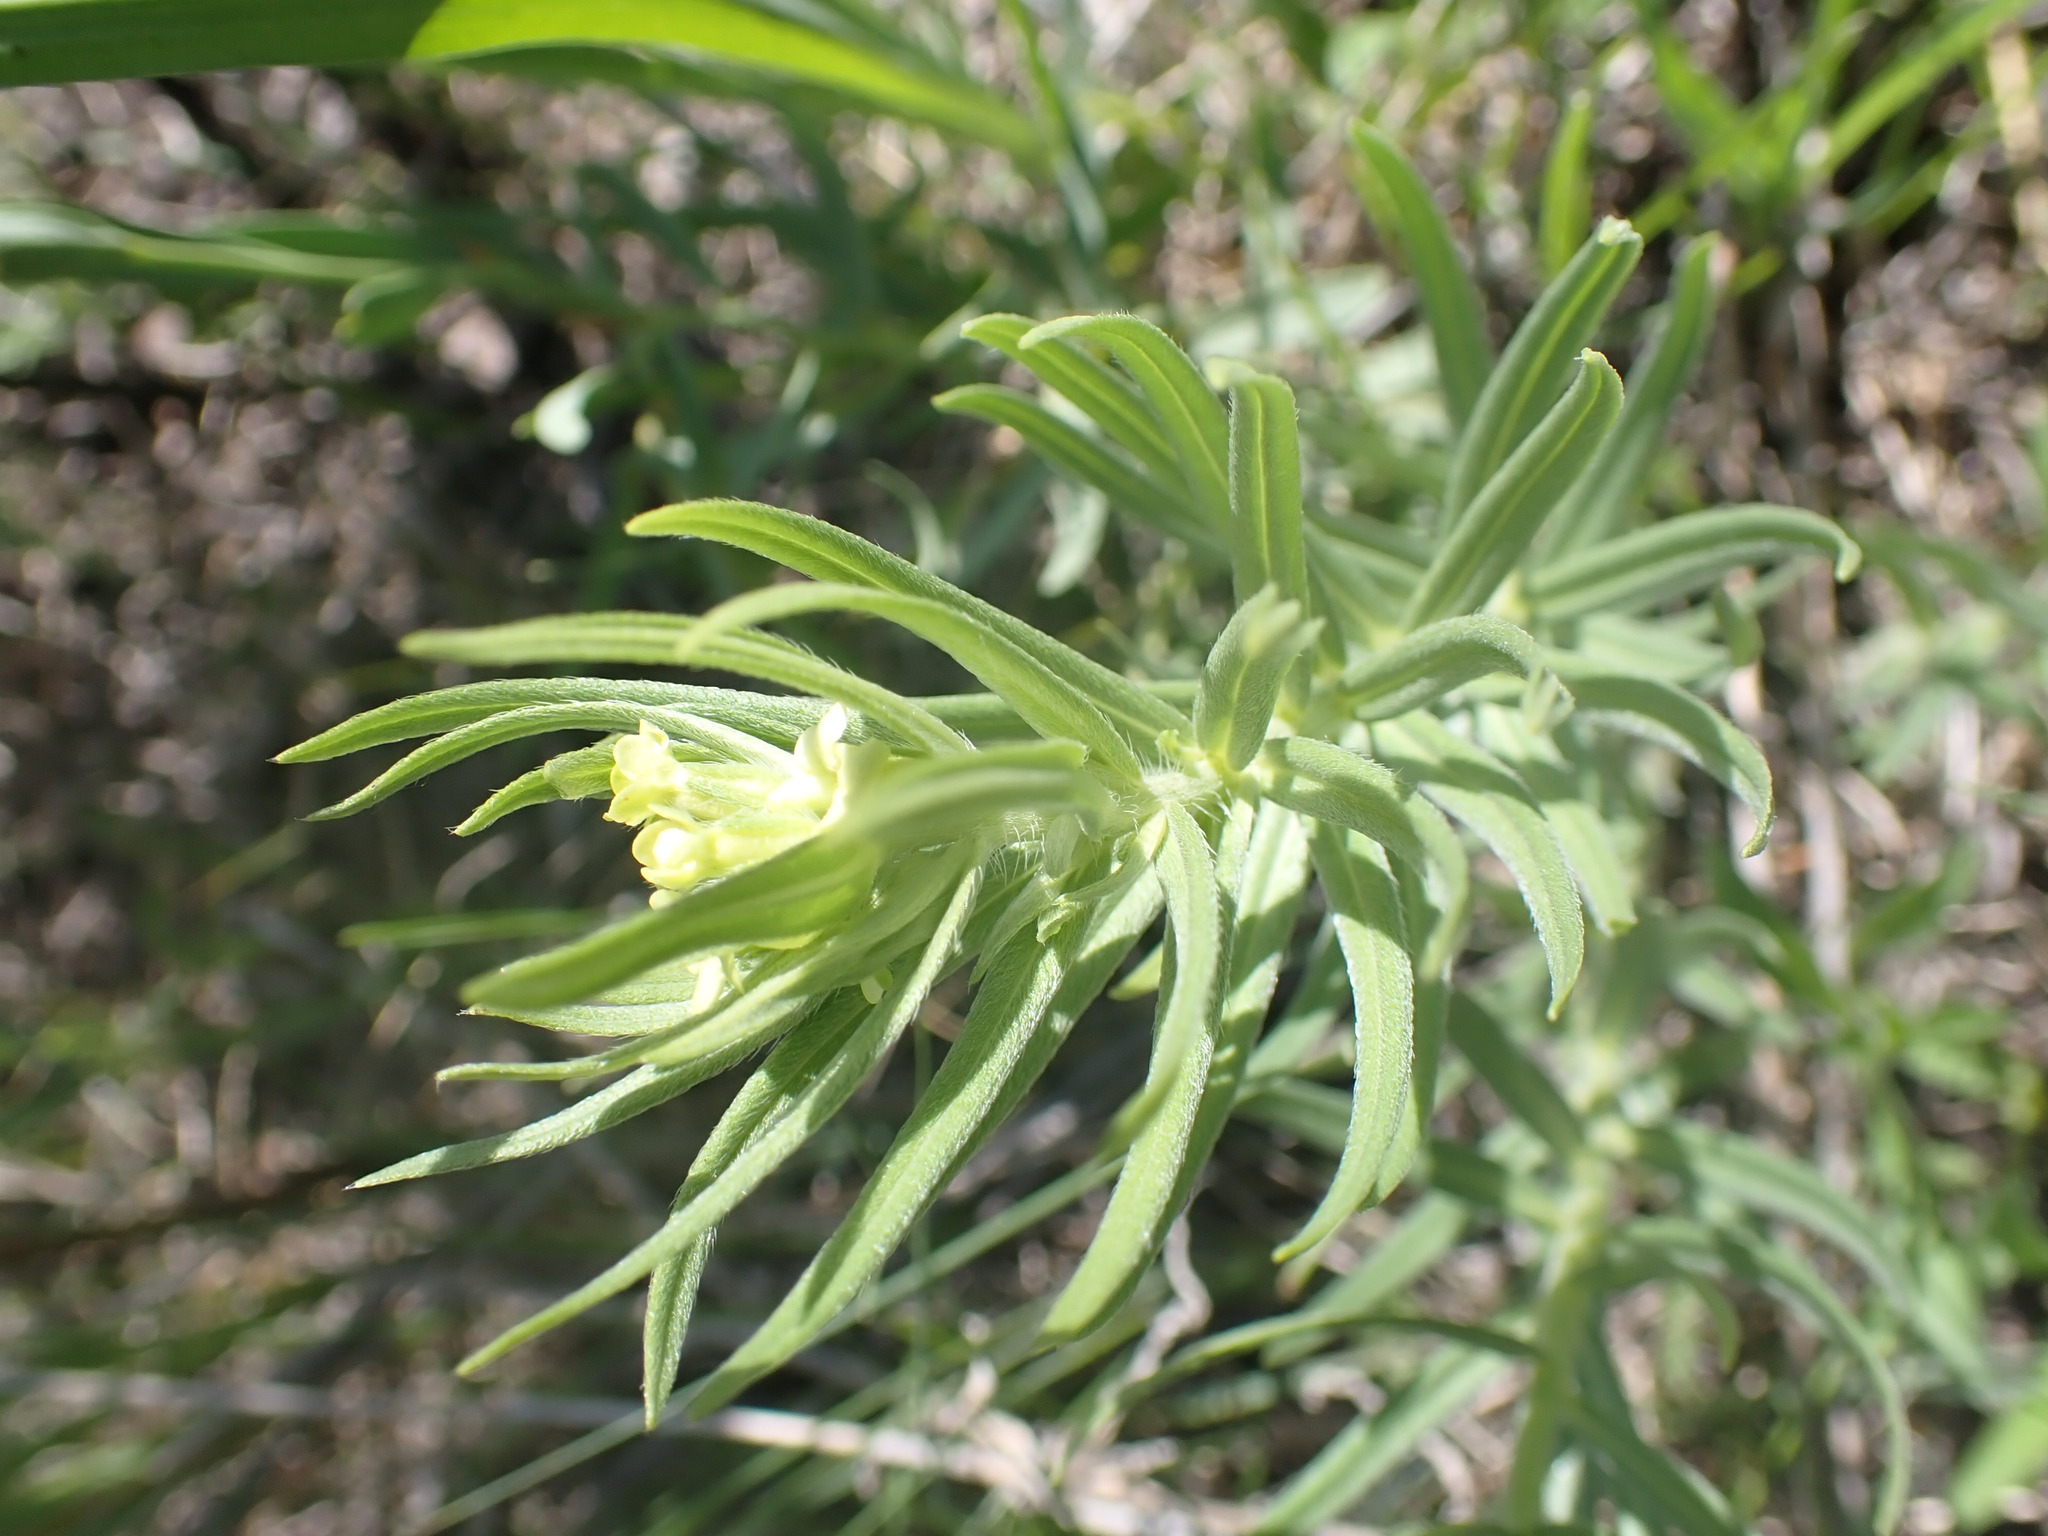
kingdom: Plantae
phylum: Tracheophyta
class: Magnoliopsida
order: Boraginales
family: Boraginaceae
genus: Lithospermum
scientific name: Lithospermum ruderale
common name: Western gromwell
